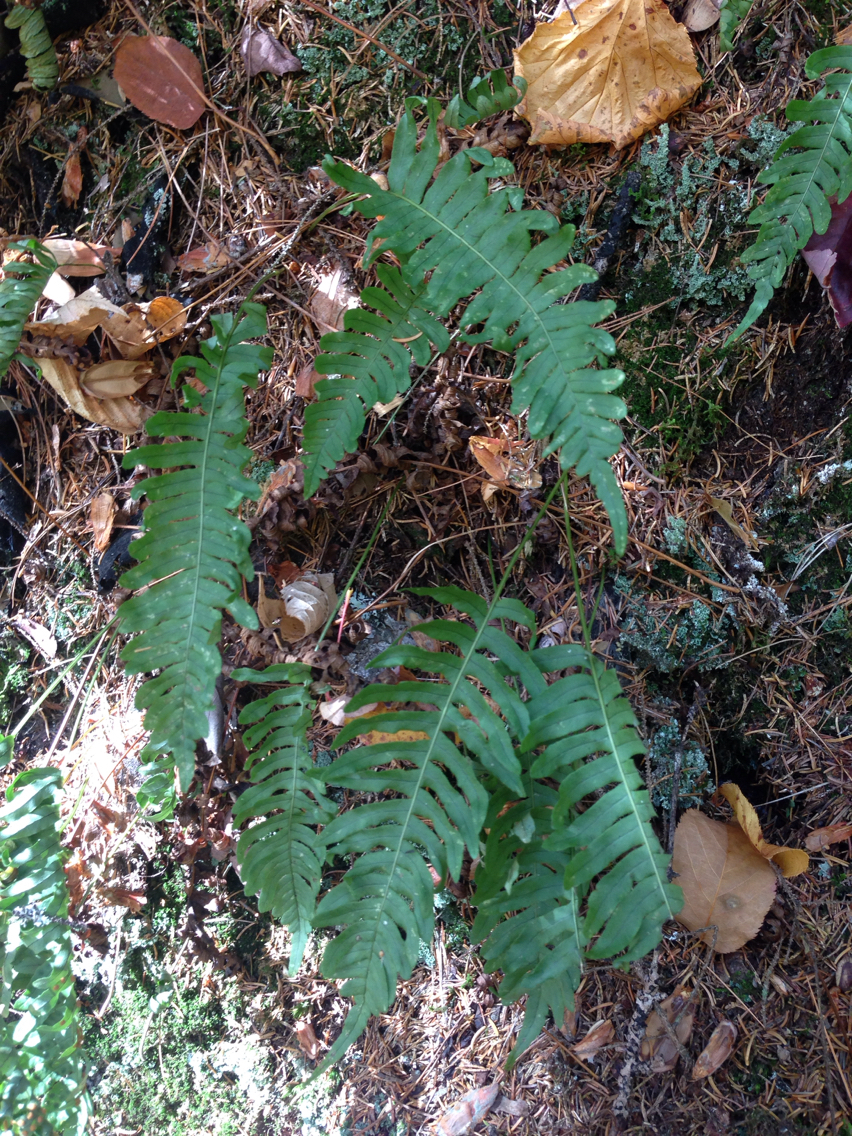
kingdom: Plantae
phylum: Tracheophyta
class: Polypodiopsida
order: Polypodiales
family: Polypodiaceae
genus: Polypodium
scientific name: Polypodium virginianum
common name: American wall fern
